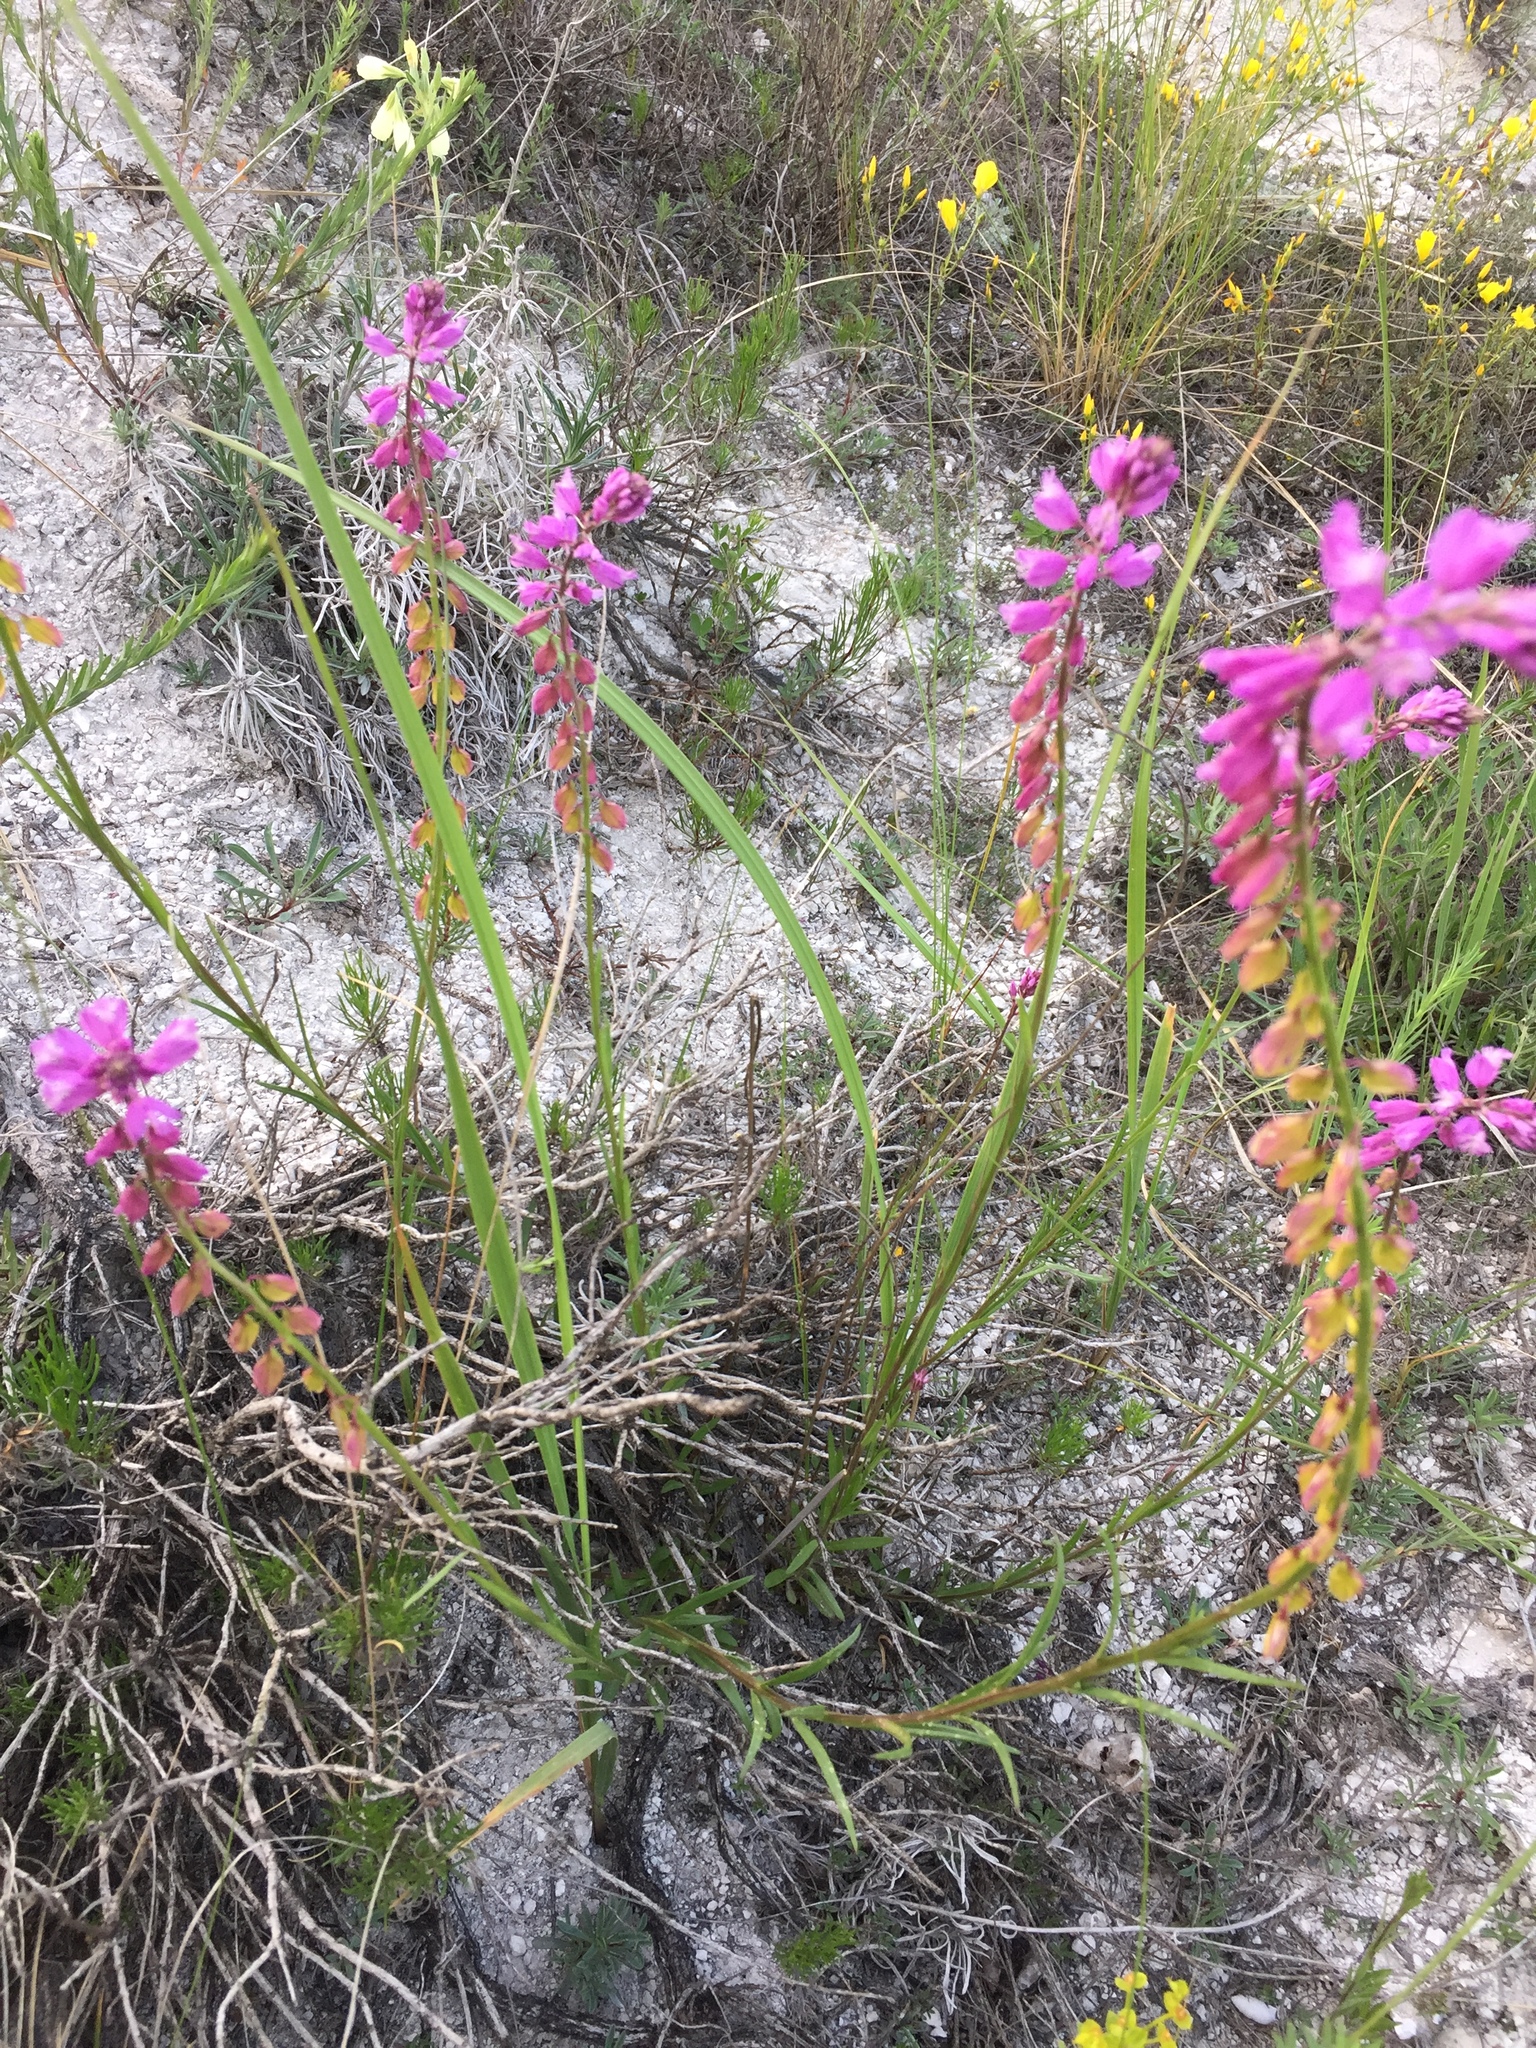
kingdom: Plantae
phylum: Tracheophyta
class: Magnoliopsida
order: Fabales
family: Polygalaceae
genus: Polygala
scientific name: Polygala nicaeensis
